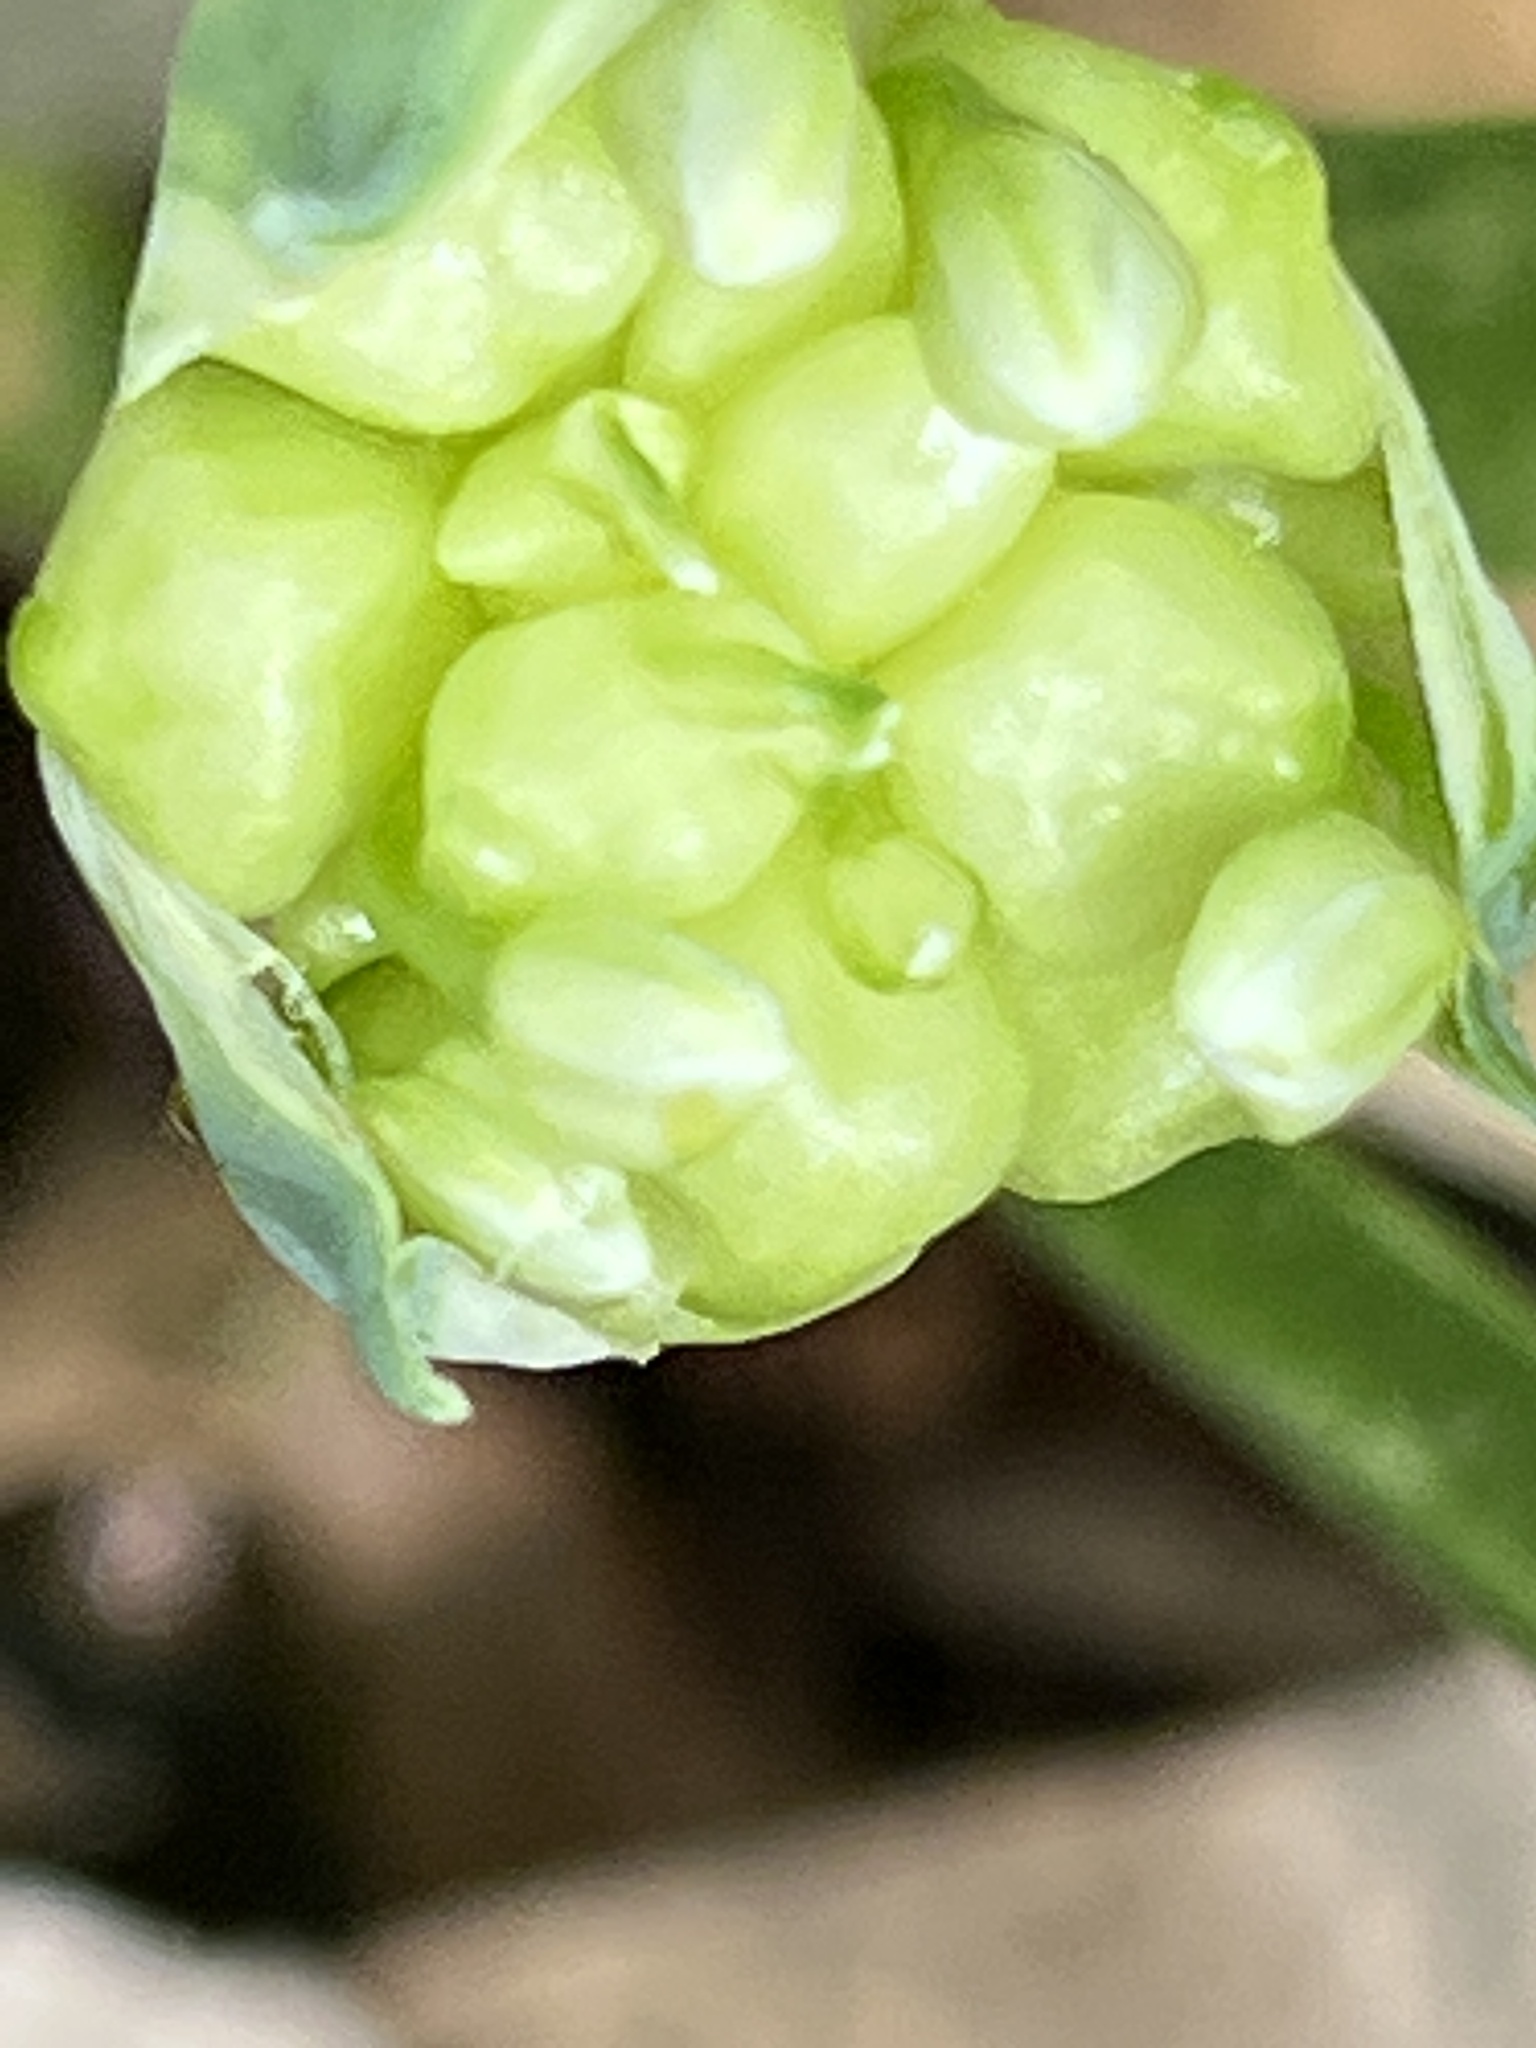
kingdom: Plantae
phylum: Tracheophyta
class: Liliopsida
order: Asparagales
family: Amaryllidaceae
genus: Allium
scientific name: Allium canadense
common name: Meadow garlic
